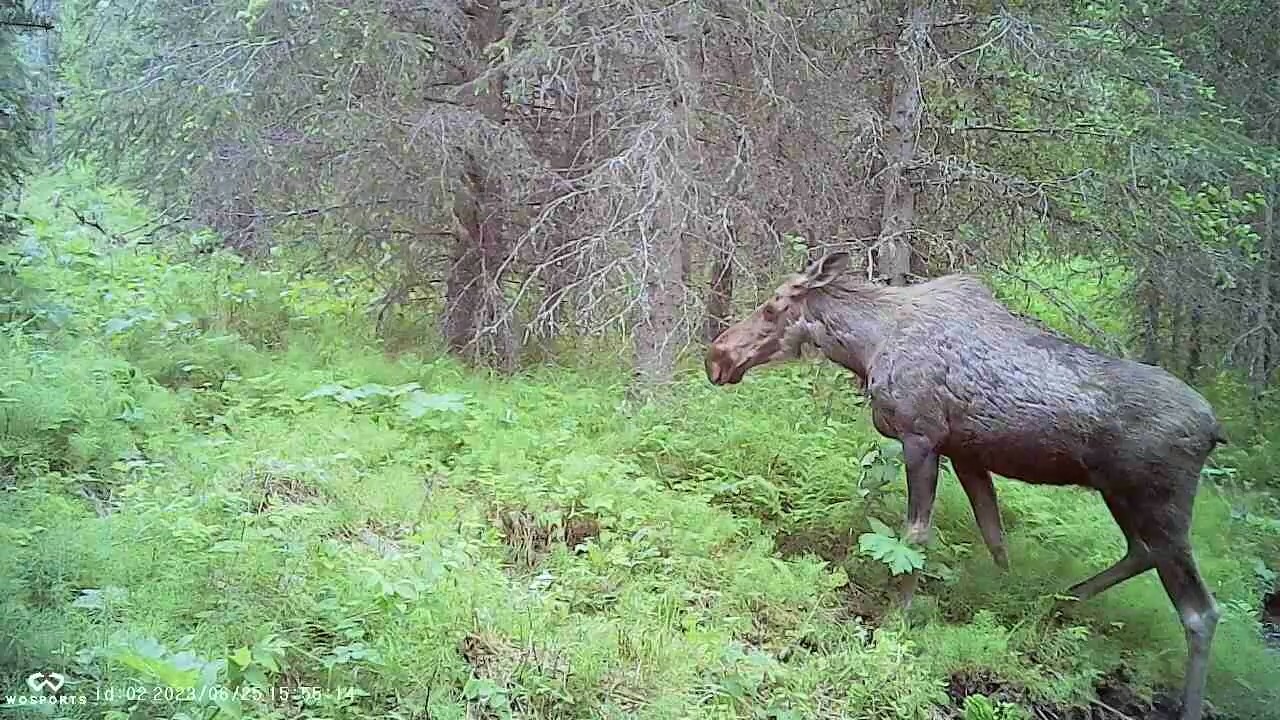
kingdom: Animalia
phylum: Chordata
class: Mammalia
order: Artiodactyla
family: Cervidae
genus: Alces
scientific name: Alces alces
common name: Moose
